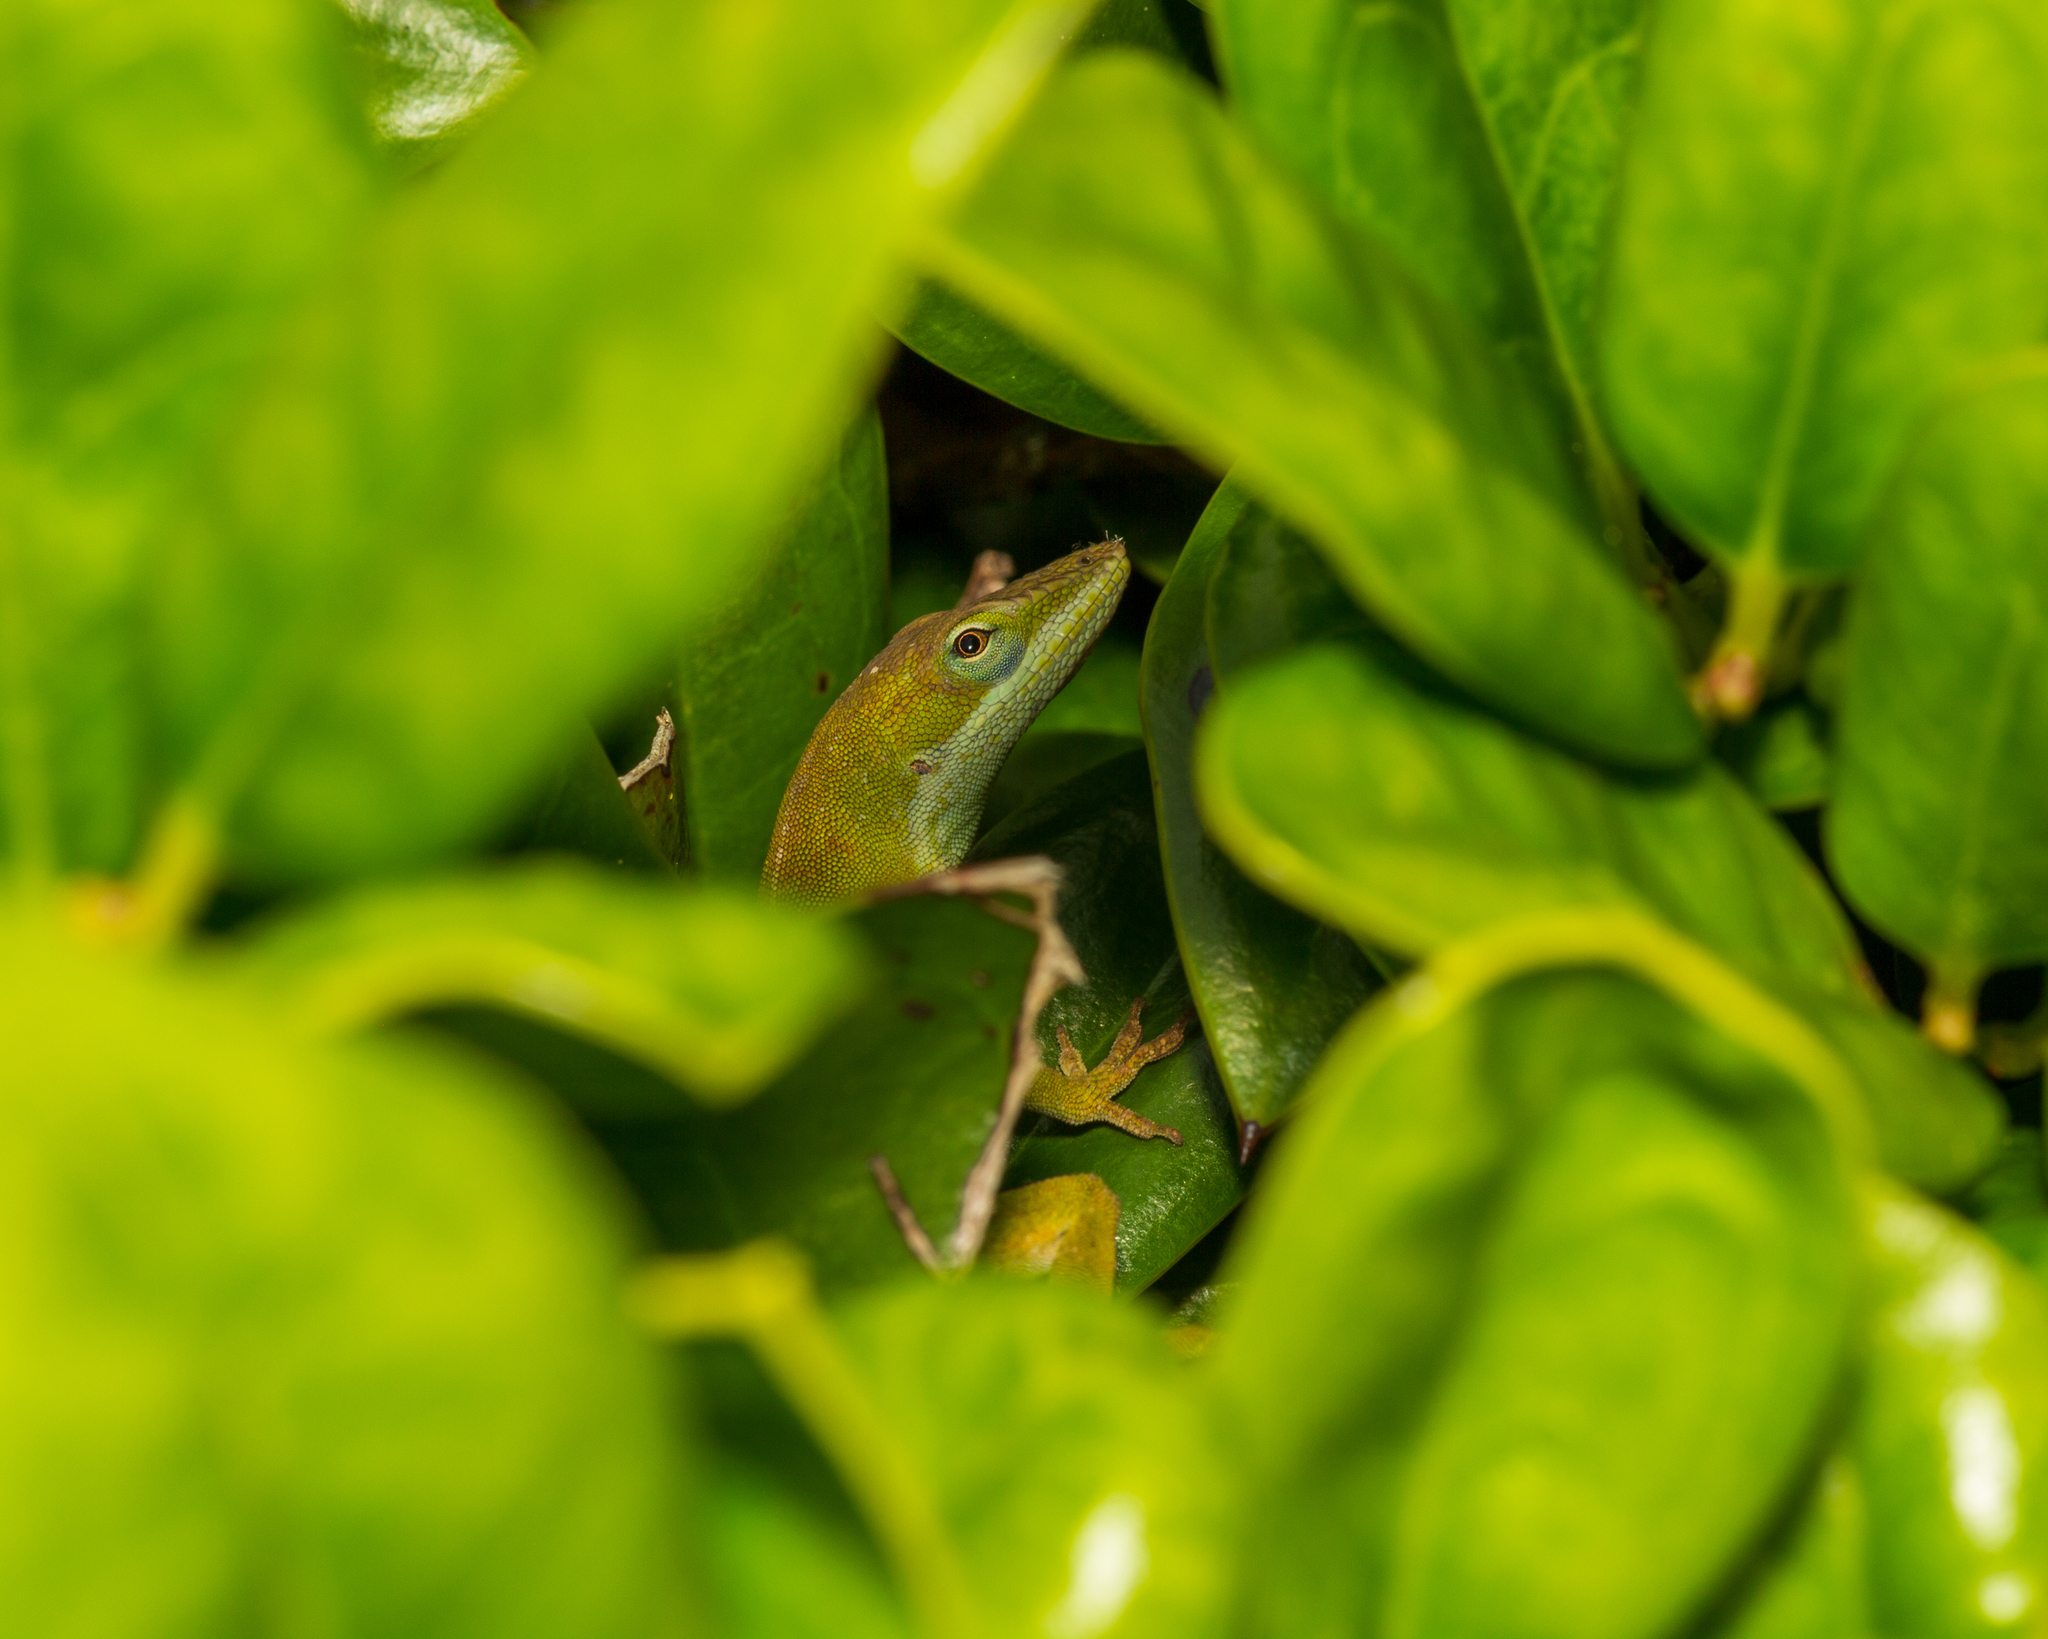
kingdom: Animalia
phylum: Chordata
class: Squamata
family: Dactyloidae
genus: Anolis
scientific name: Anolis carolinensis
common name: Green anole
